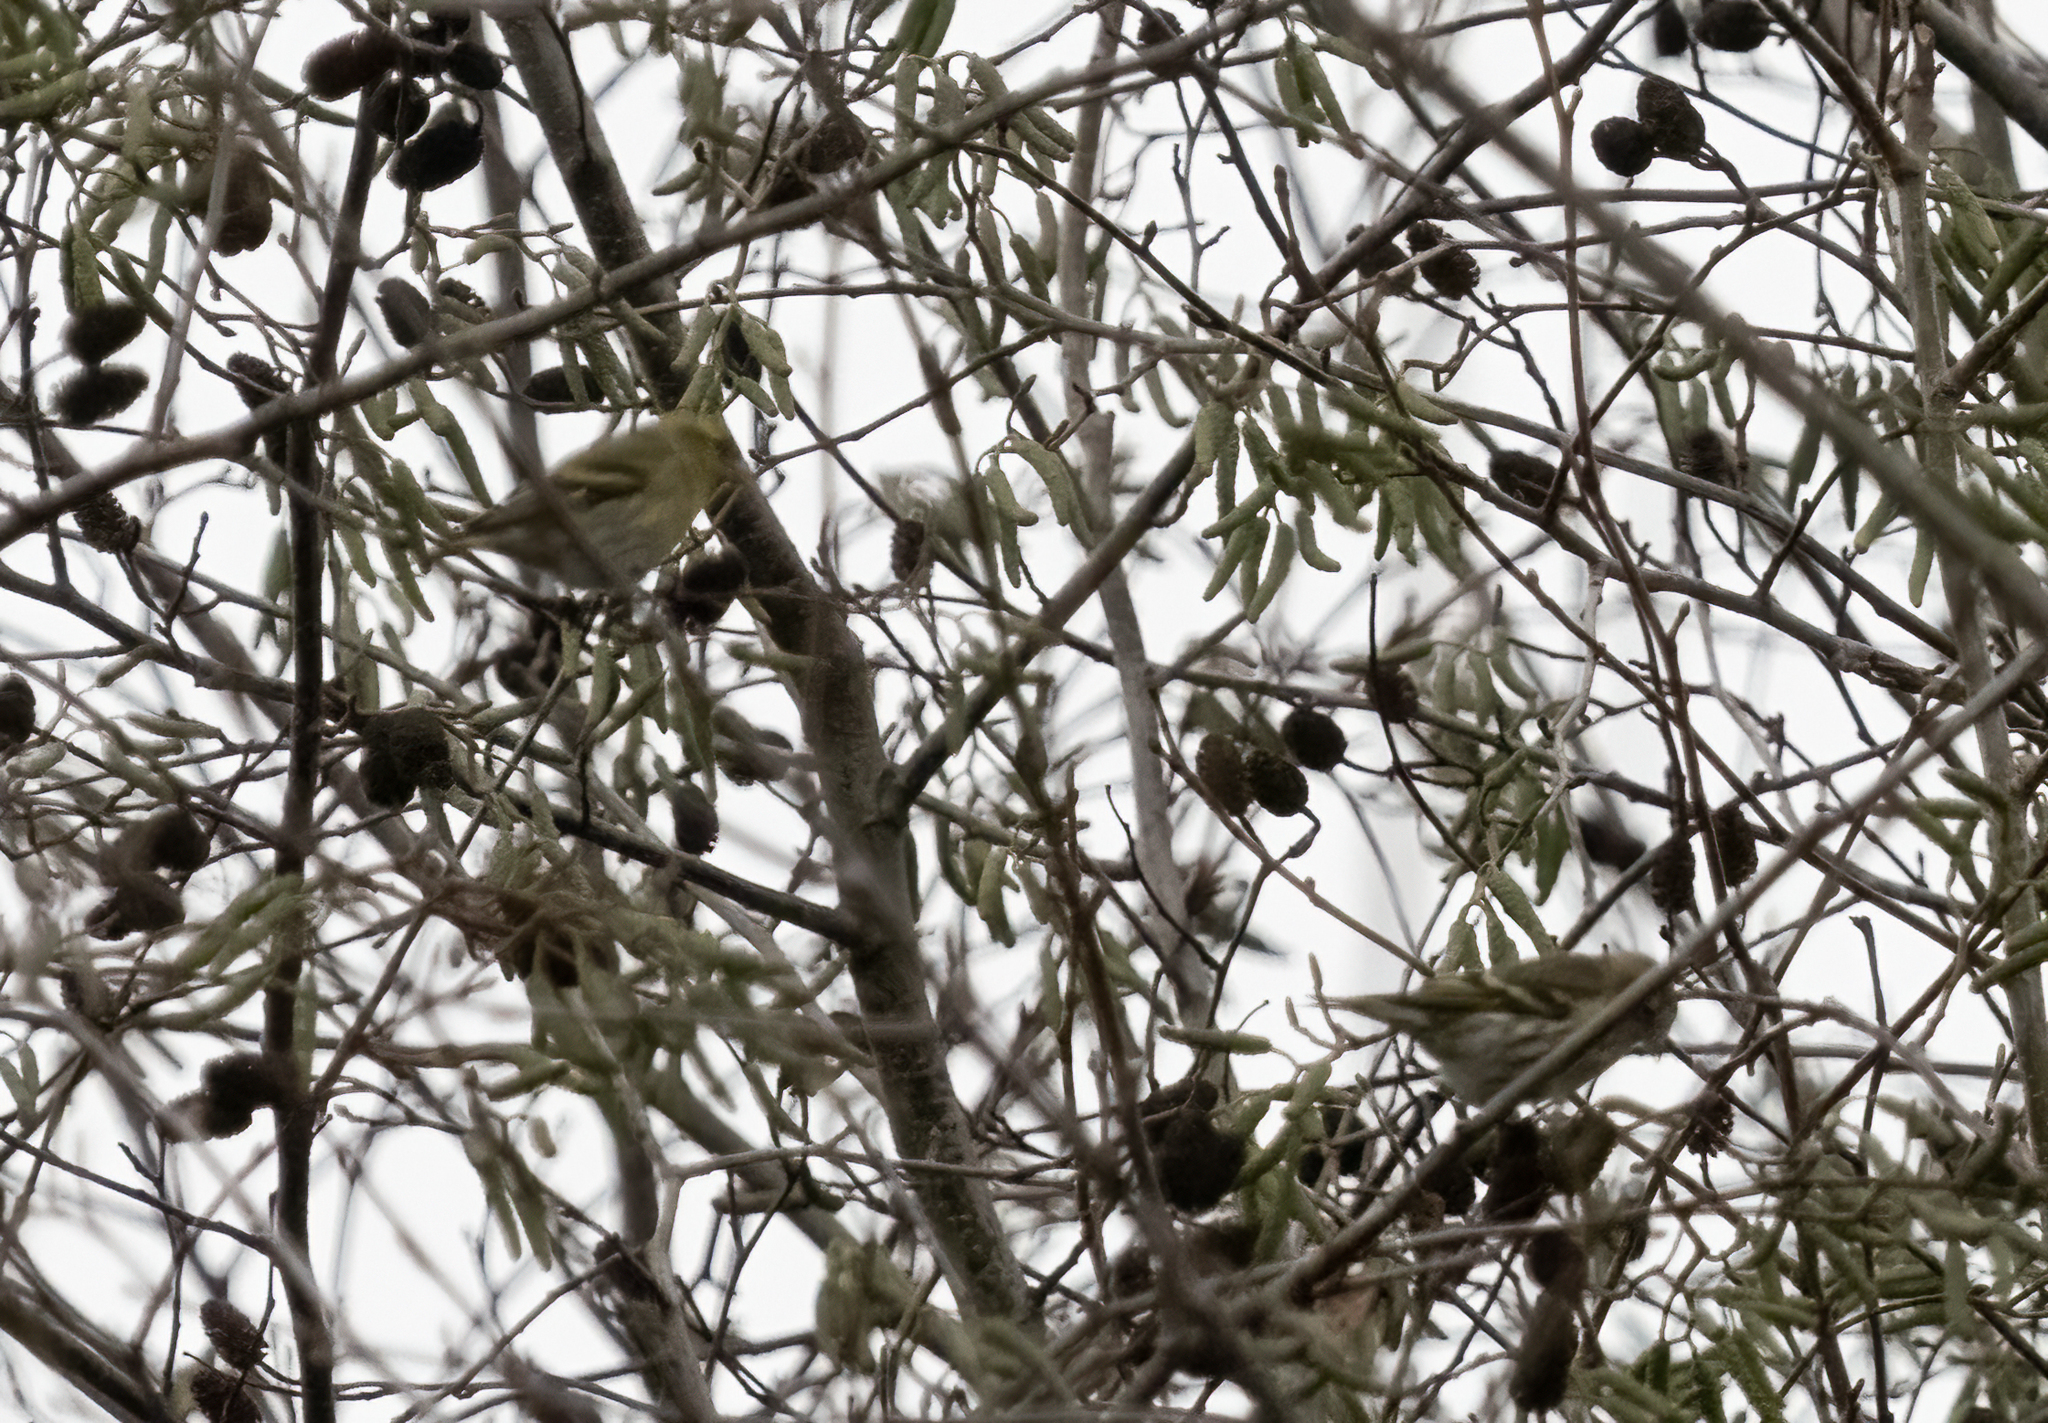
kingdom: Animalia
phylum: Chordata
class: Aves
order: Passeriformes
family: Fringillidae
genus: Spinus
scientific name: Spinus spinus
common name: Eurasian siskin
